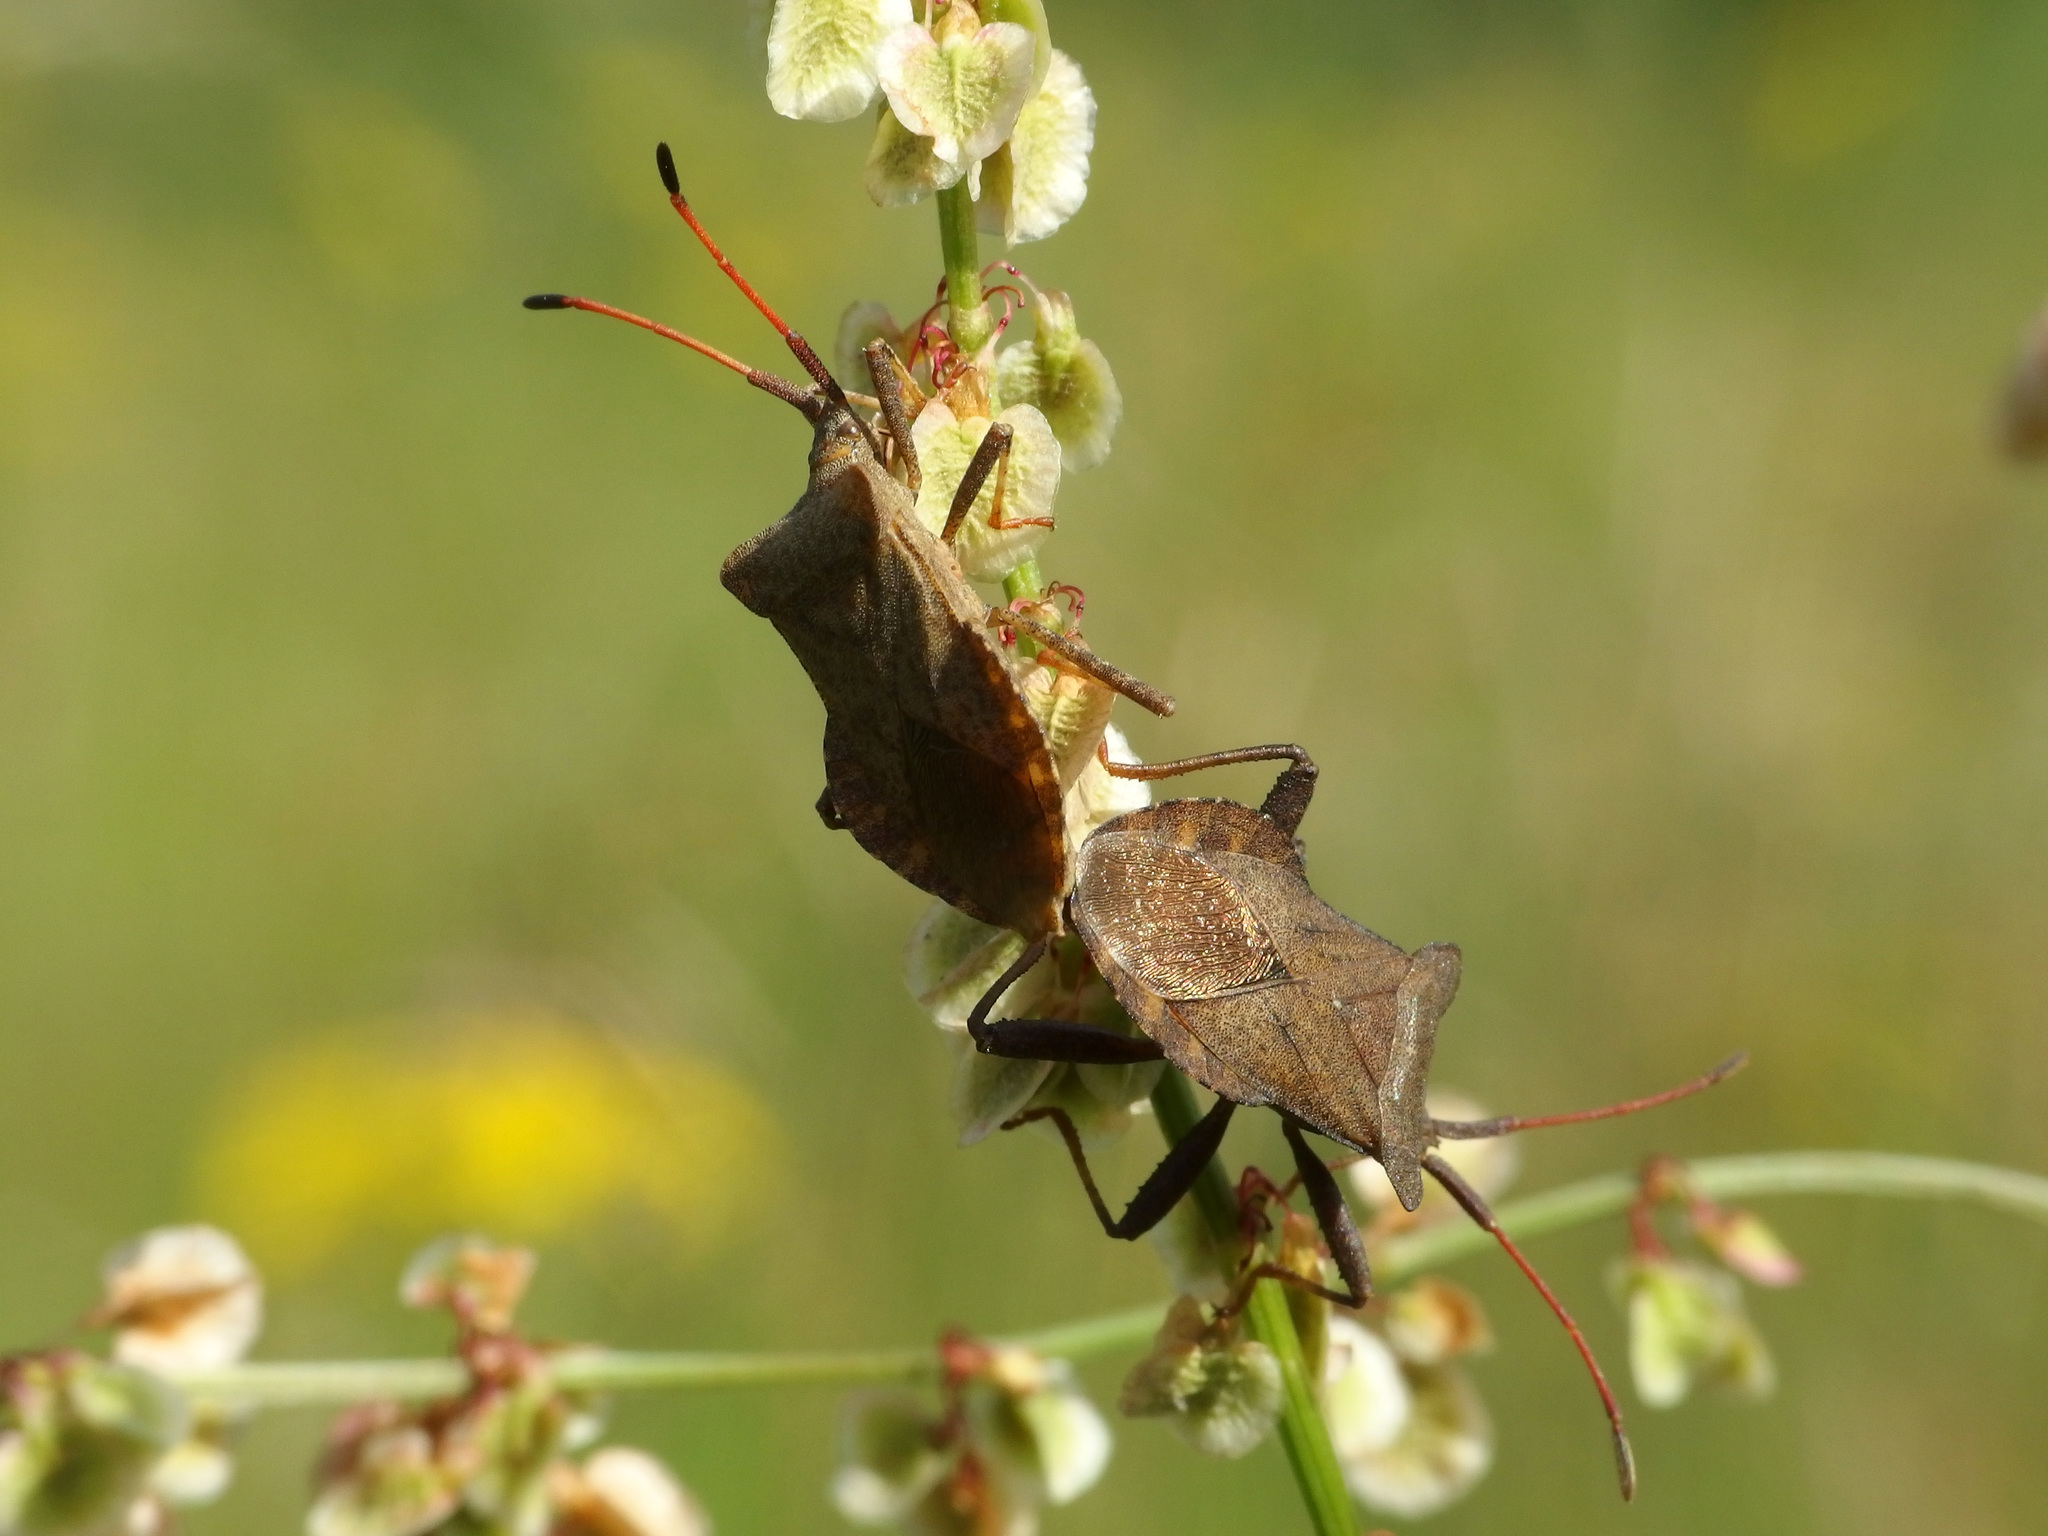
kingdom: Animalia
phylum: Arthropoda
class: Insecta
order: Hemiptera
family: Coreidae
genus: Coreus
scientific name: Coreus marginatus
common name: Dock bug
